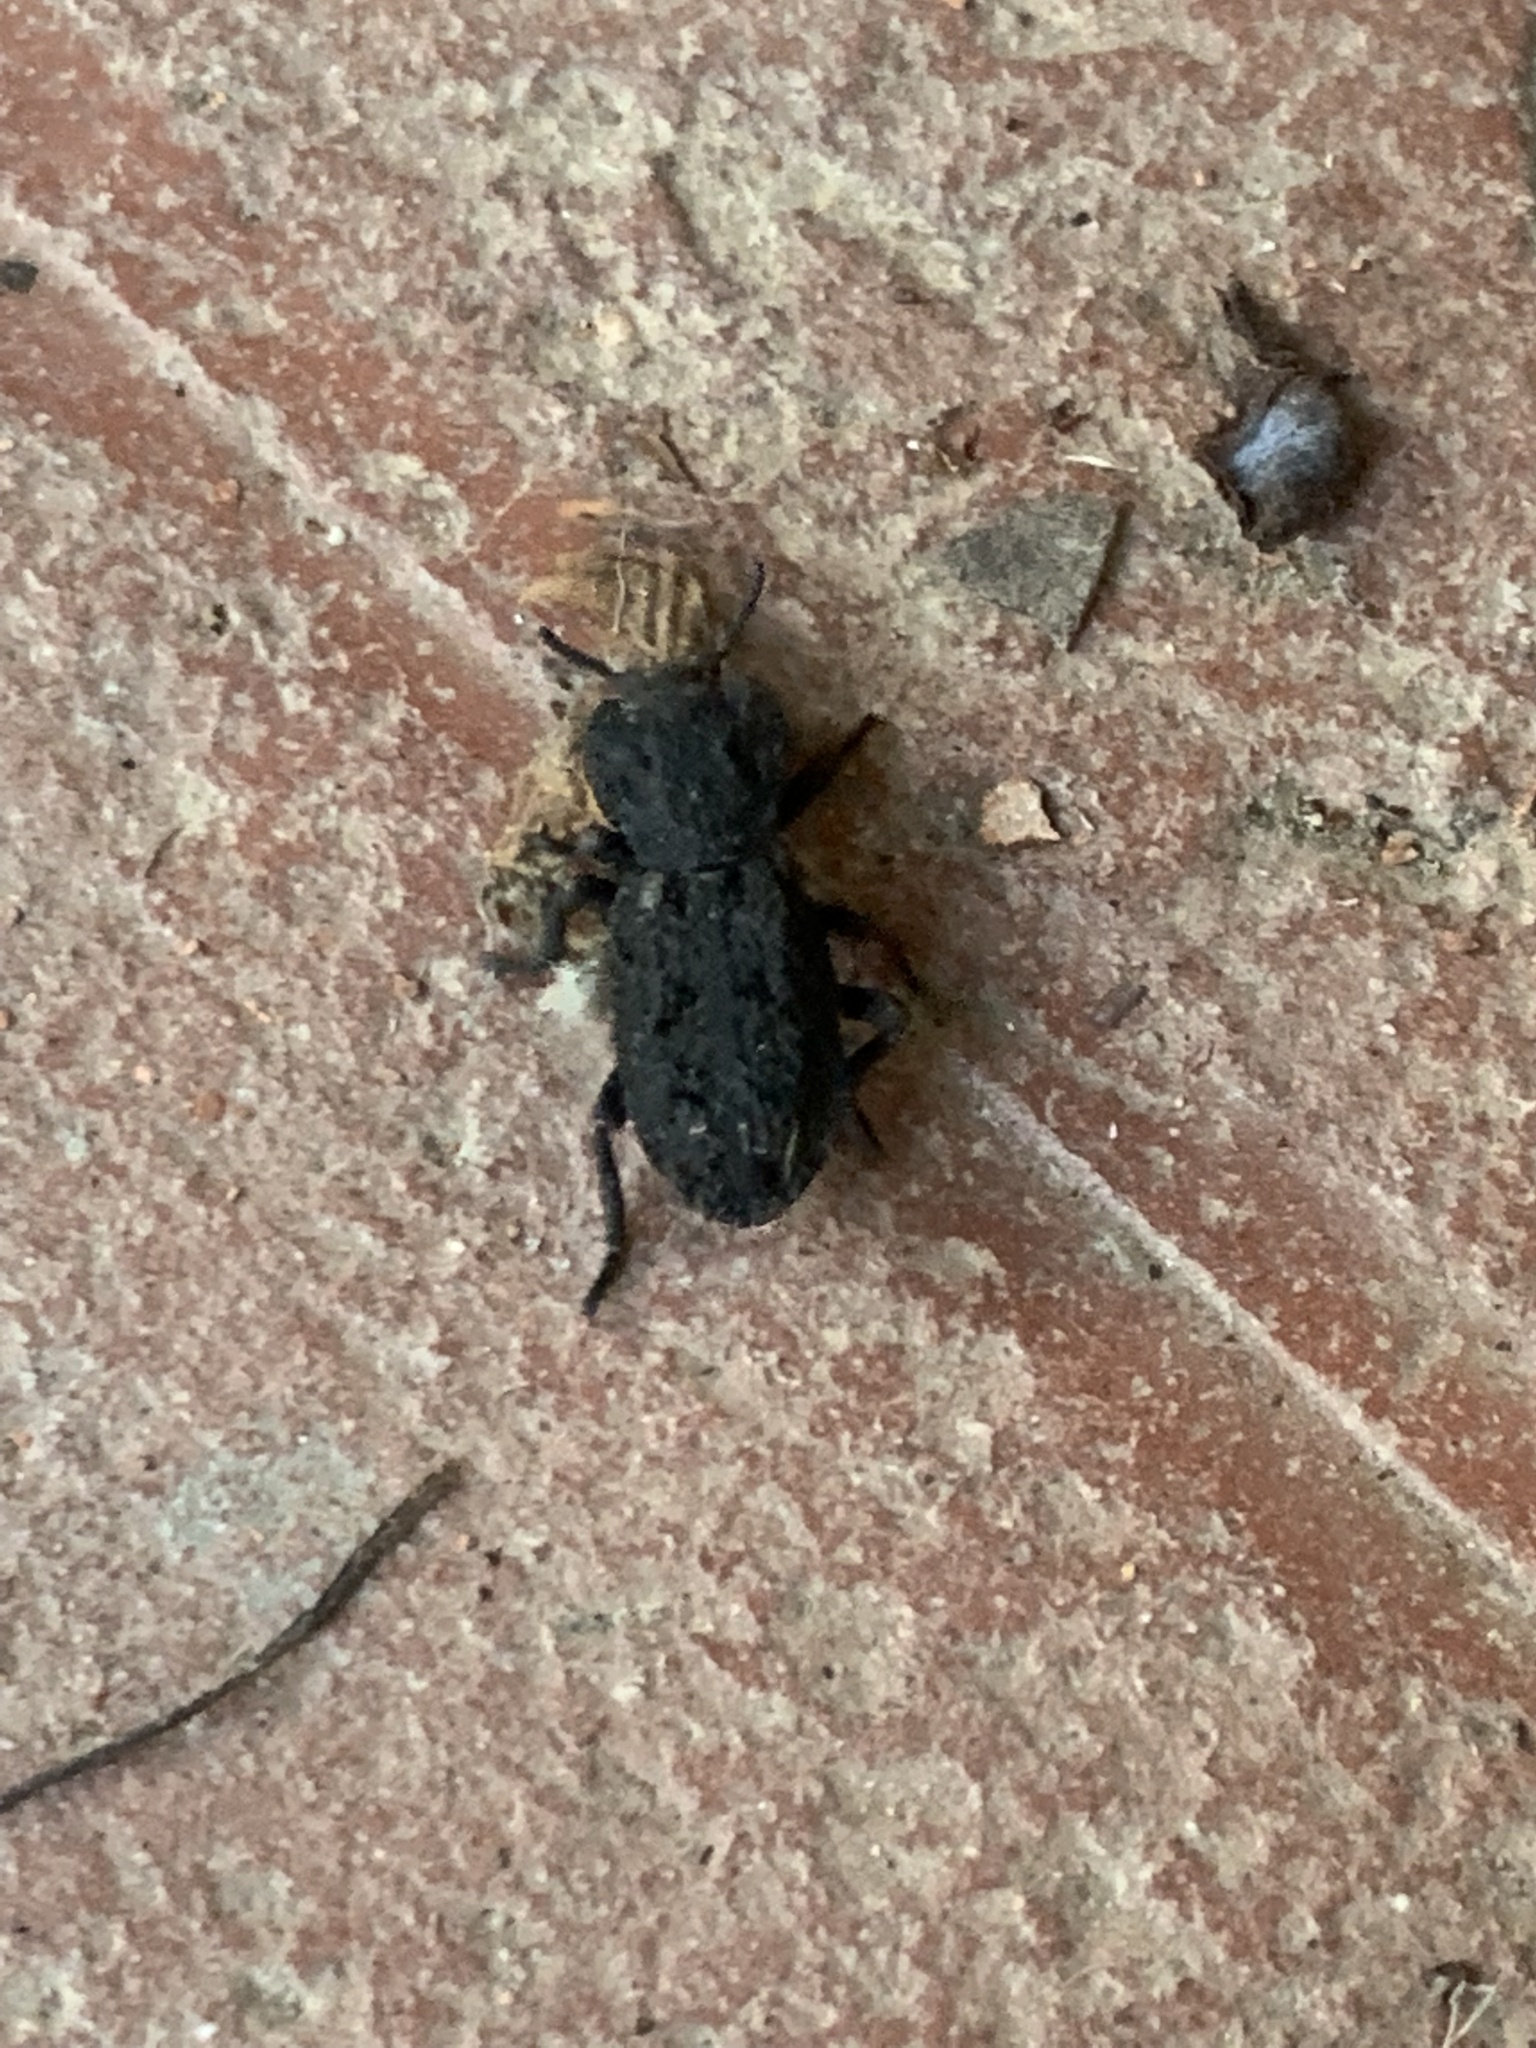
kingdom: Animalia
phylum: Arthropoda
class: Insecta
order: Coleoptera
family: Zopheridae
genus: Phloeodes
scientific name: Phloeodes diabolicus
